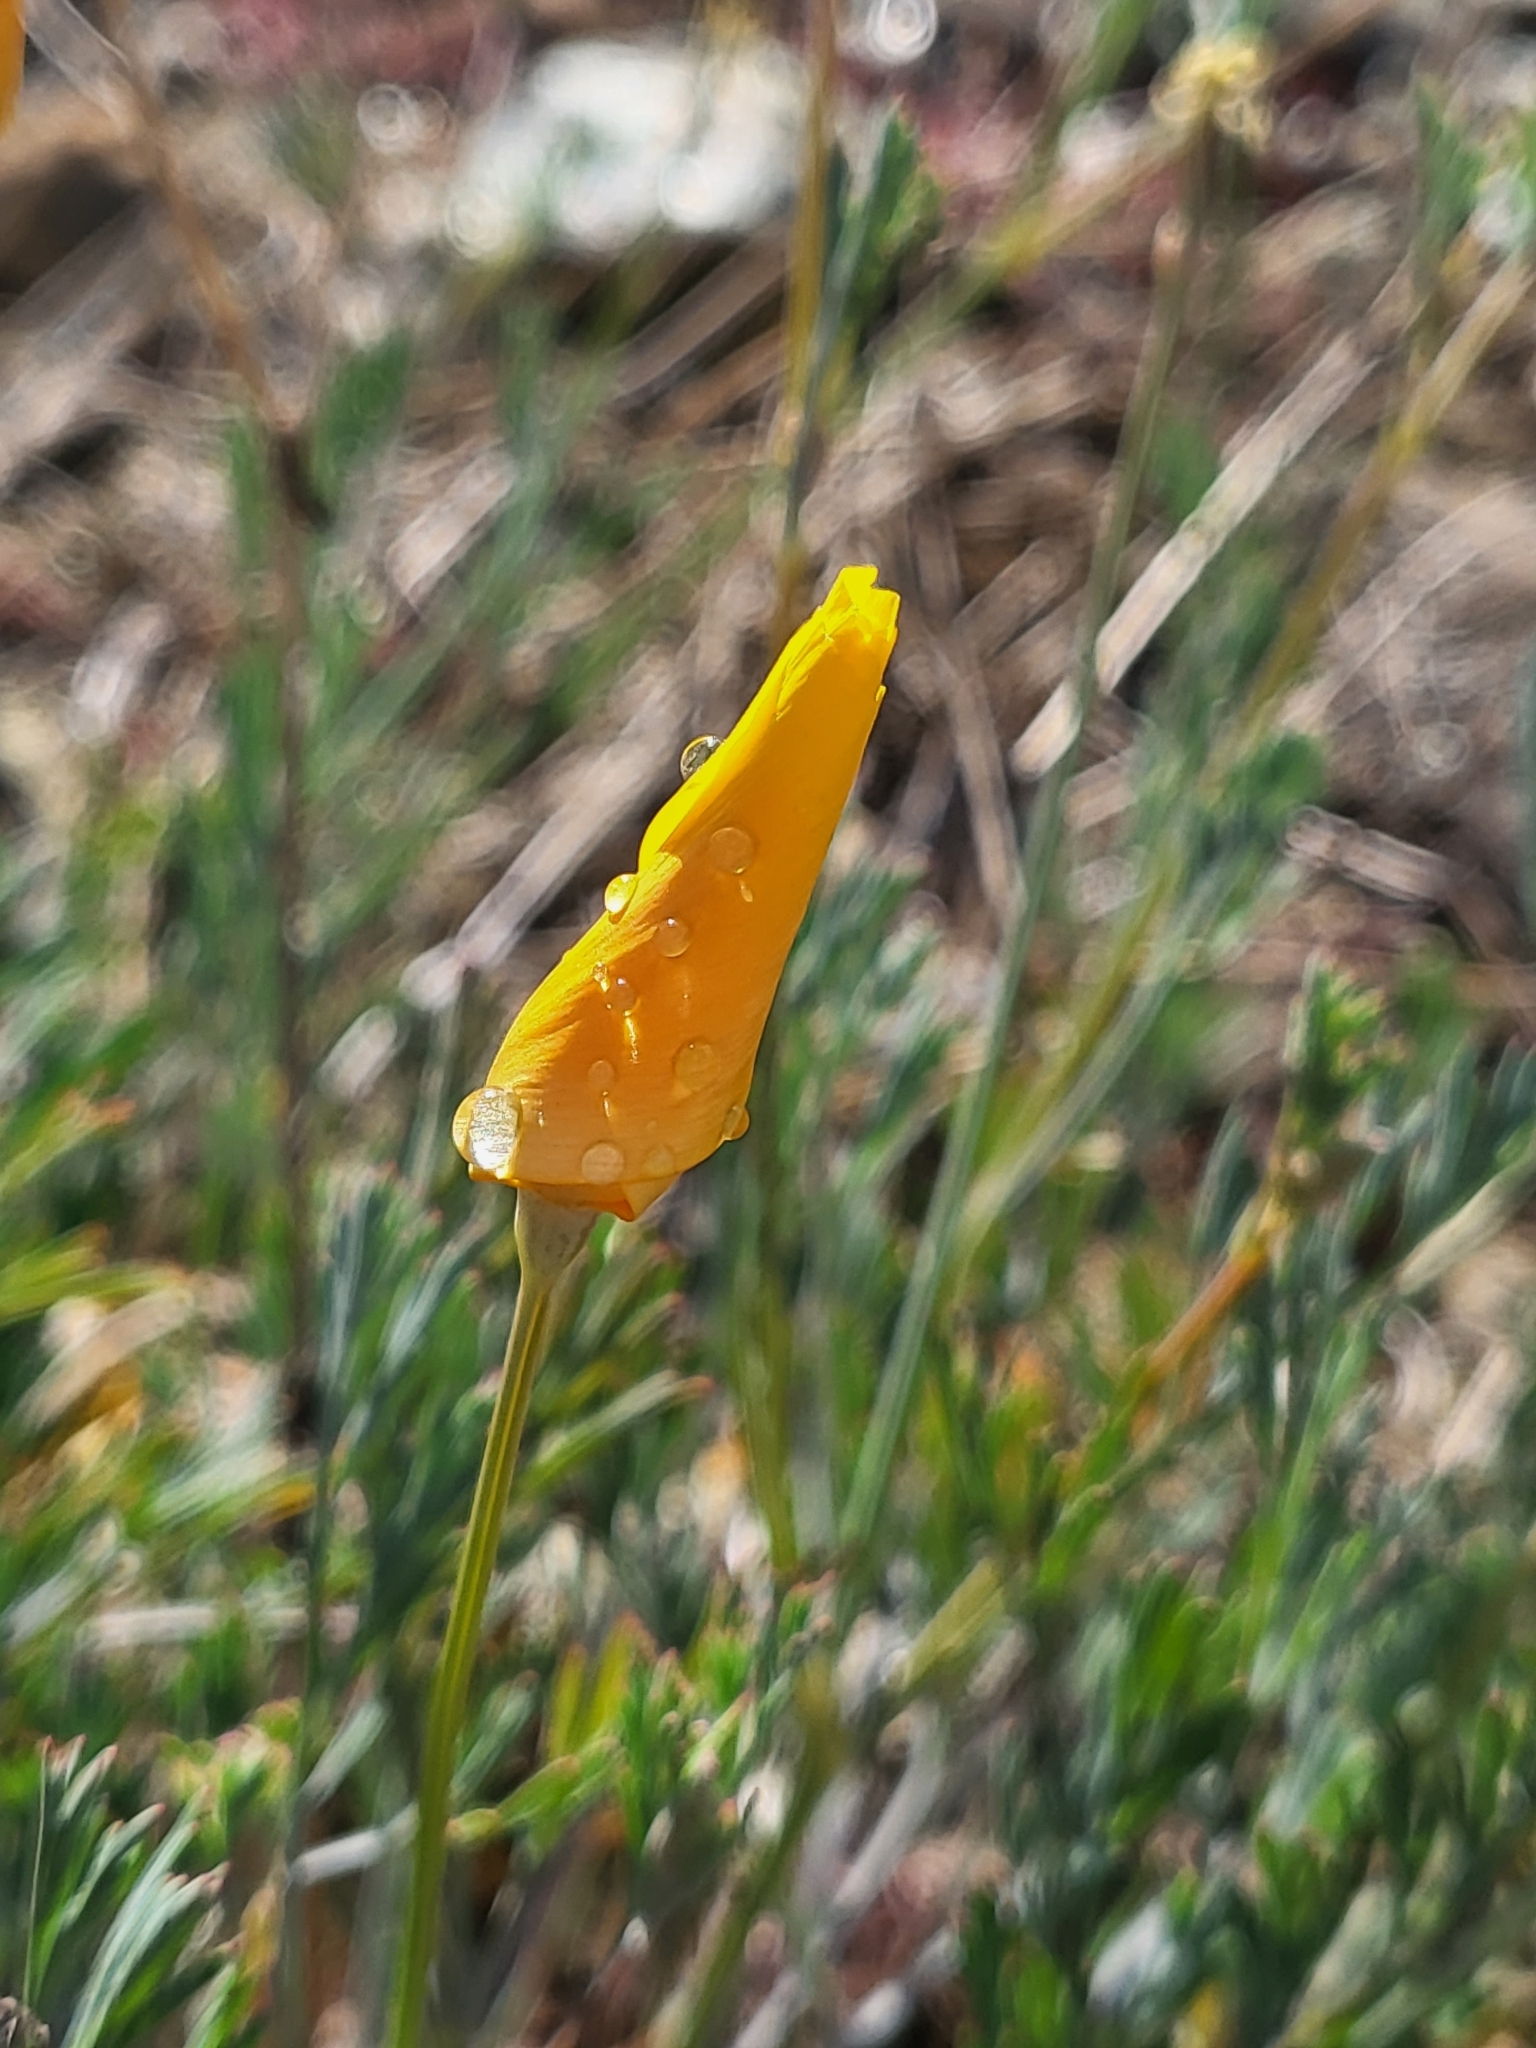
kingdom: Plantae
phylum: Tracheophyta
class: Magnoliopsida
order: Ranunculales
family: Papaveraceae
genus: Eschscholzia
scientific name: Eschscholzia caespitosa
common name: Tufted california-poppy
